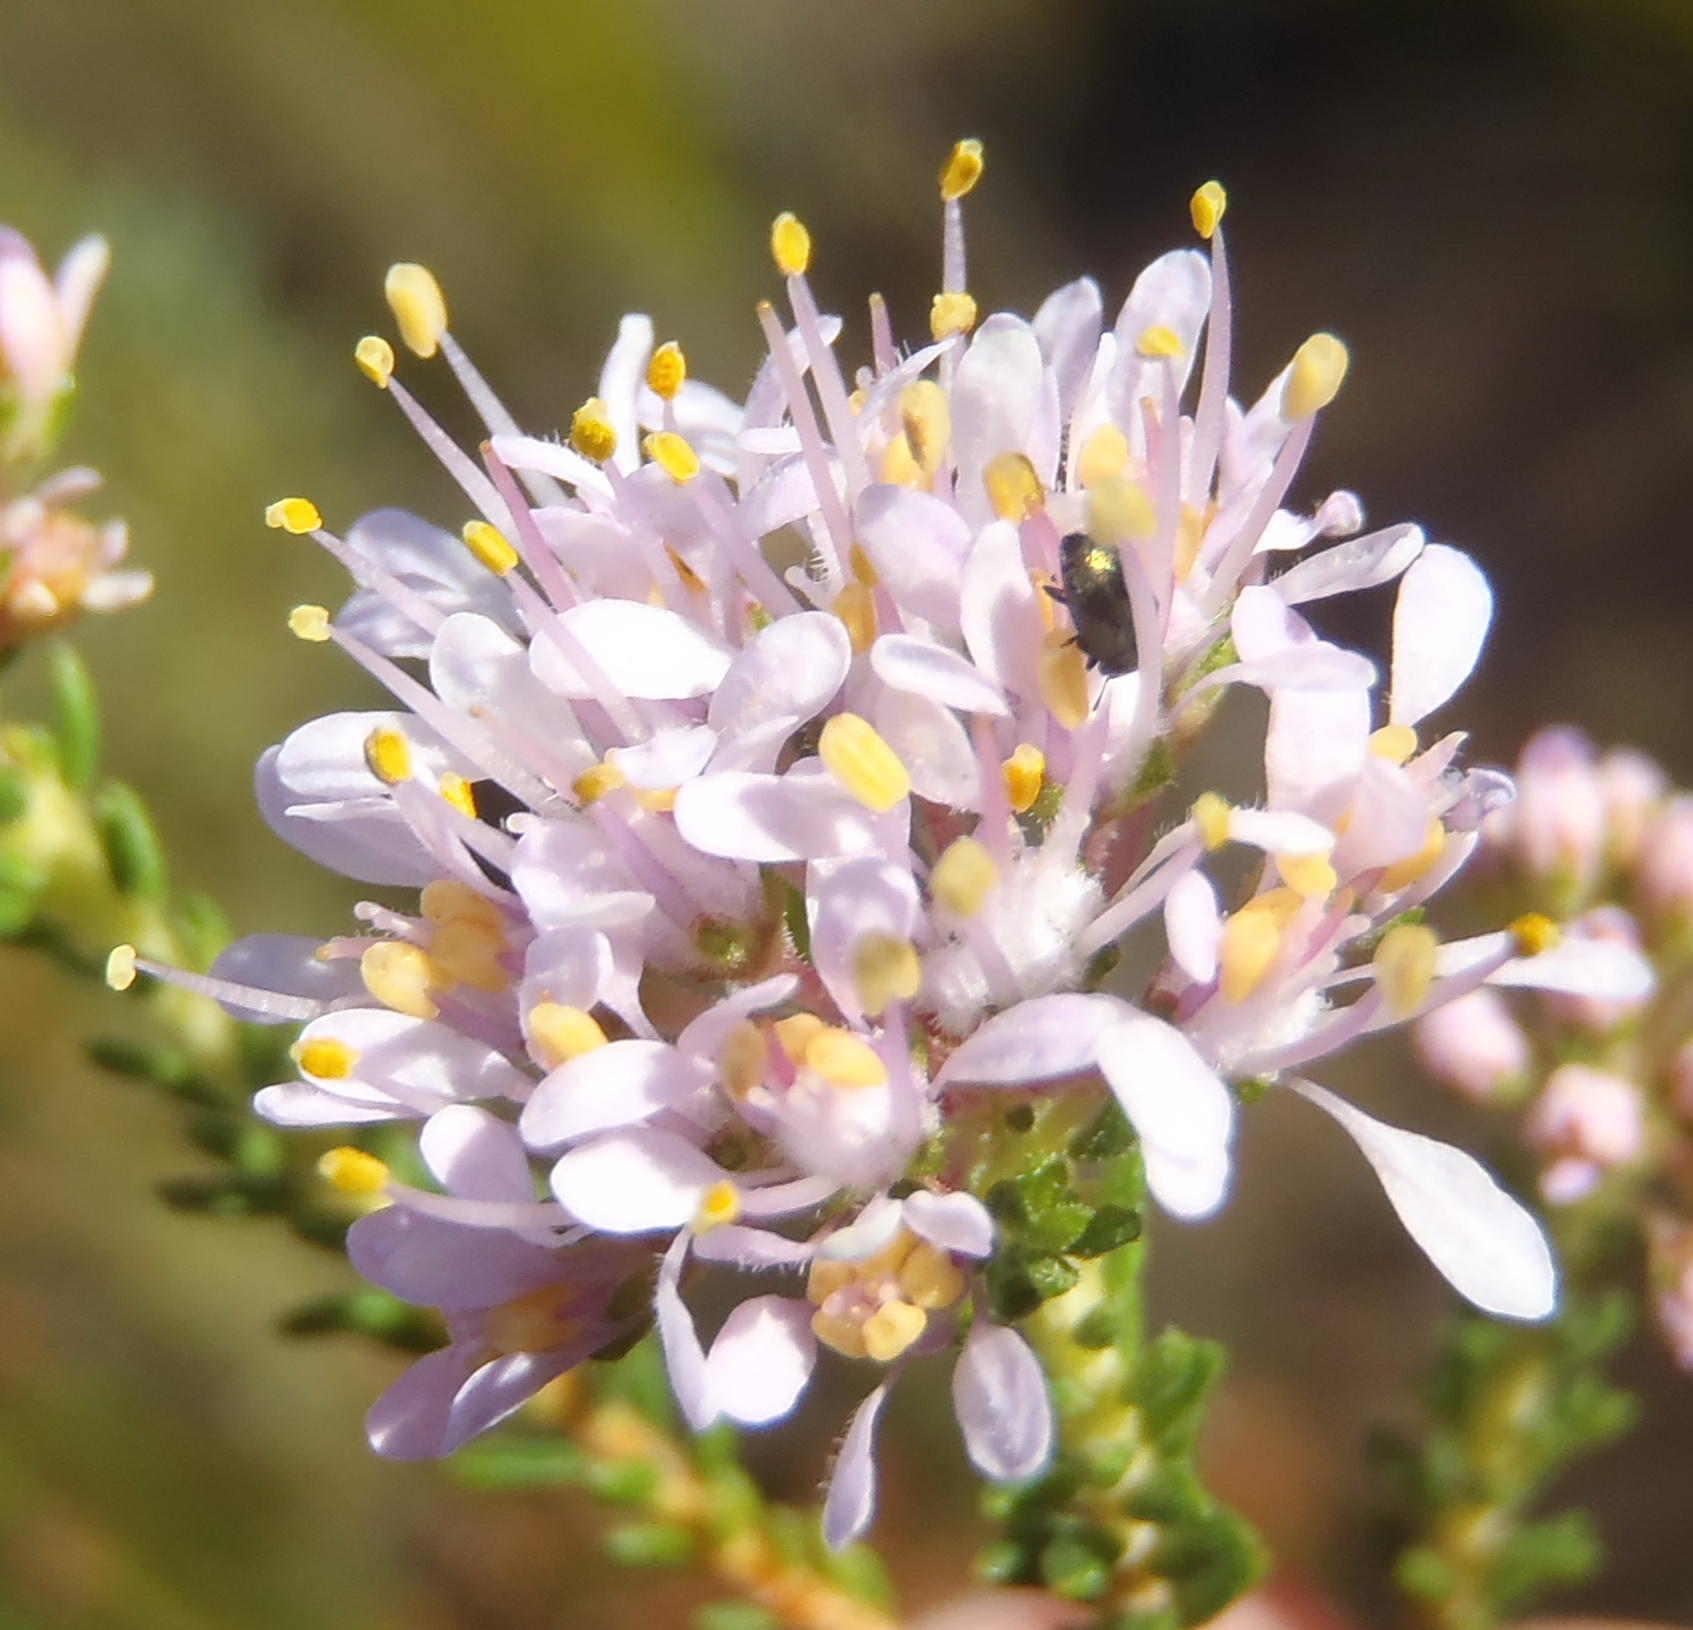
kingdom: Plantae
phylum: Tracheophyta
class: Magnoliopsida
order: Sapindales
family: Rutaceae
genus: Agathosma
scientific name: Agathosma capensis
